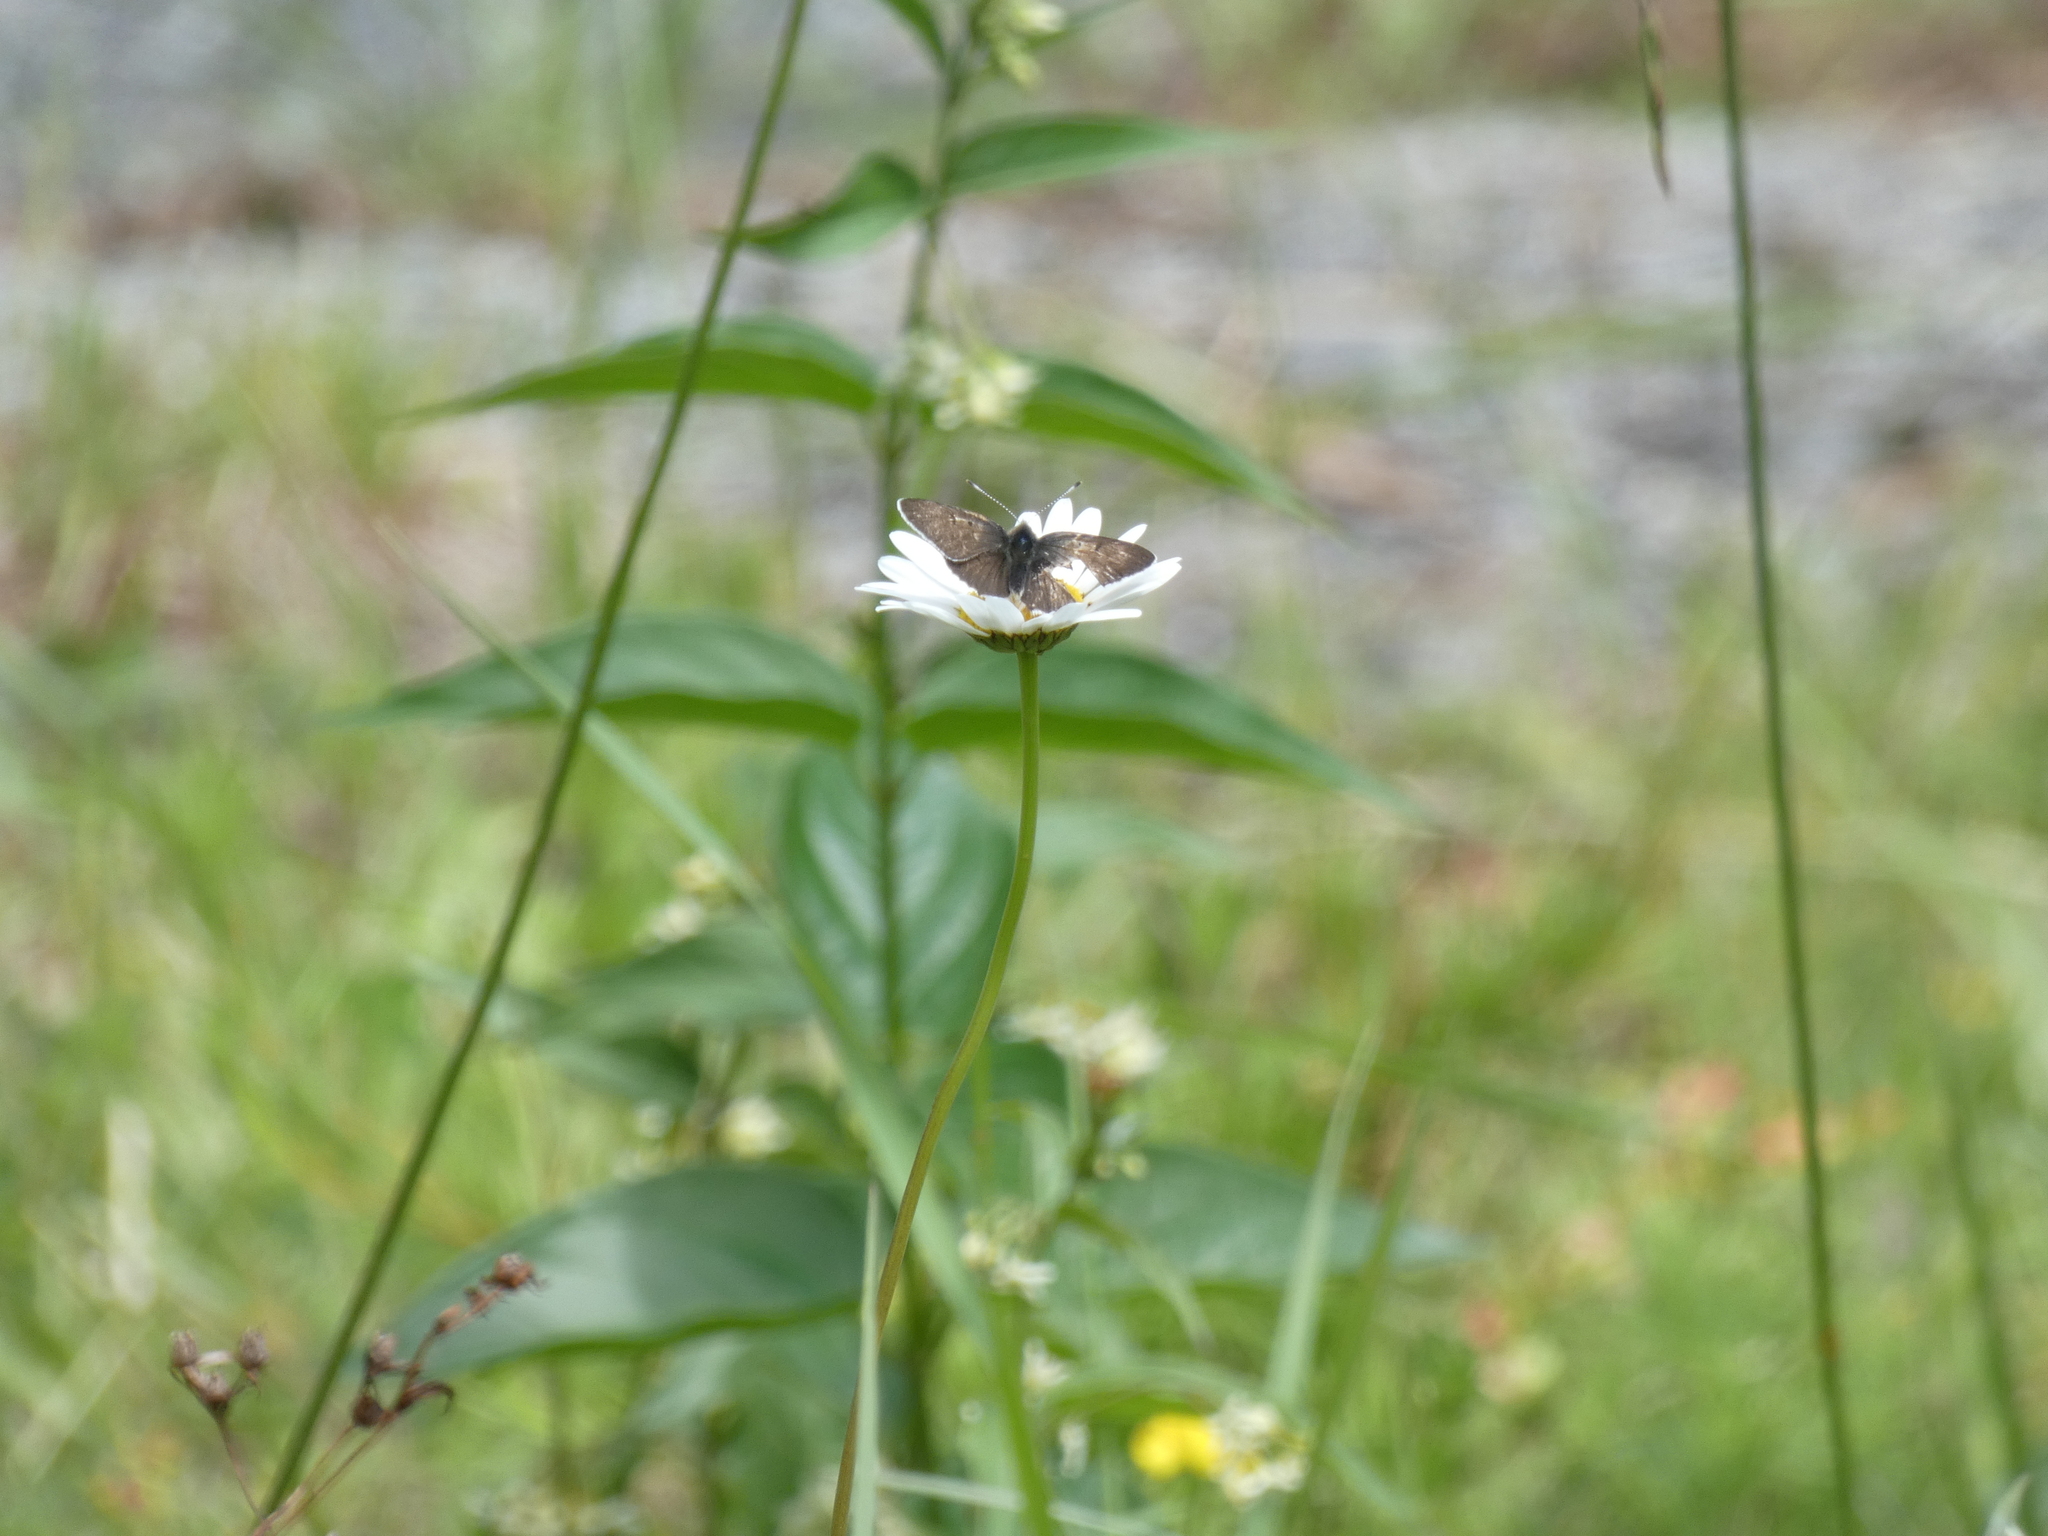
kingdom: Animalia
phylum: Arthropoda
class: Insecta
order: Lepidoptera
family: Lycaenidae
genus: Loweia
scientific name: Loweia tityrus
